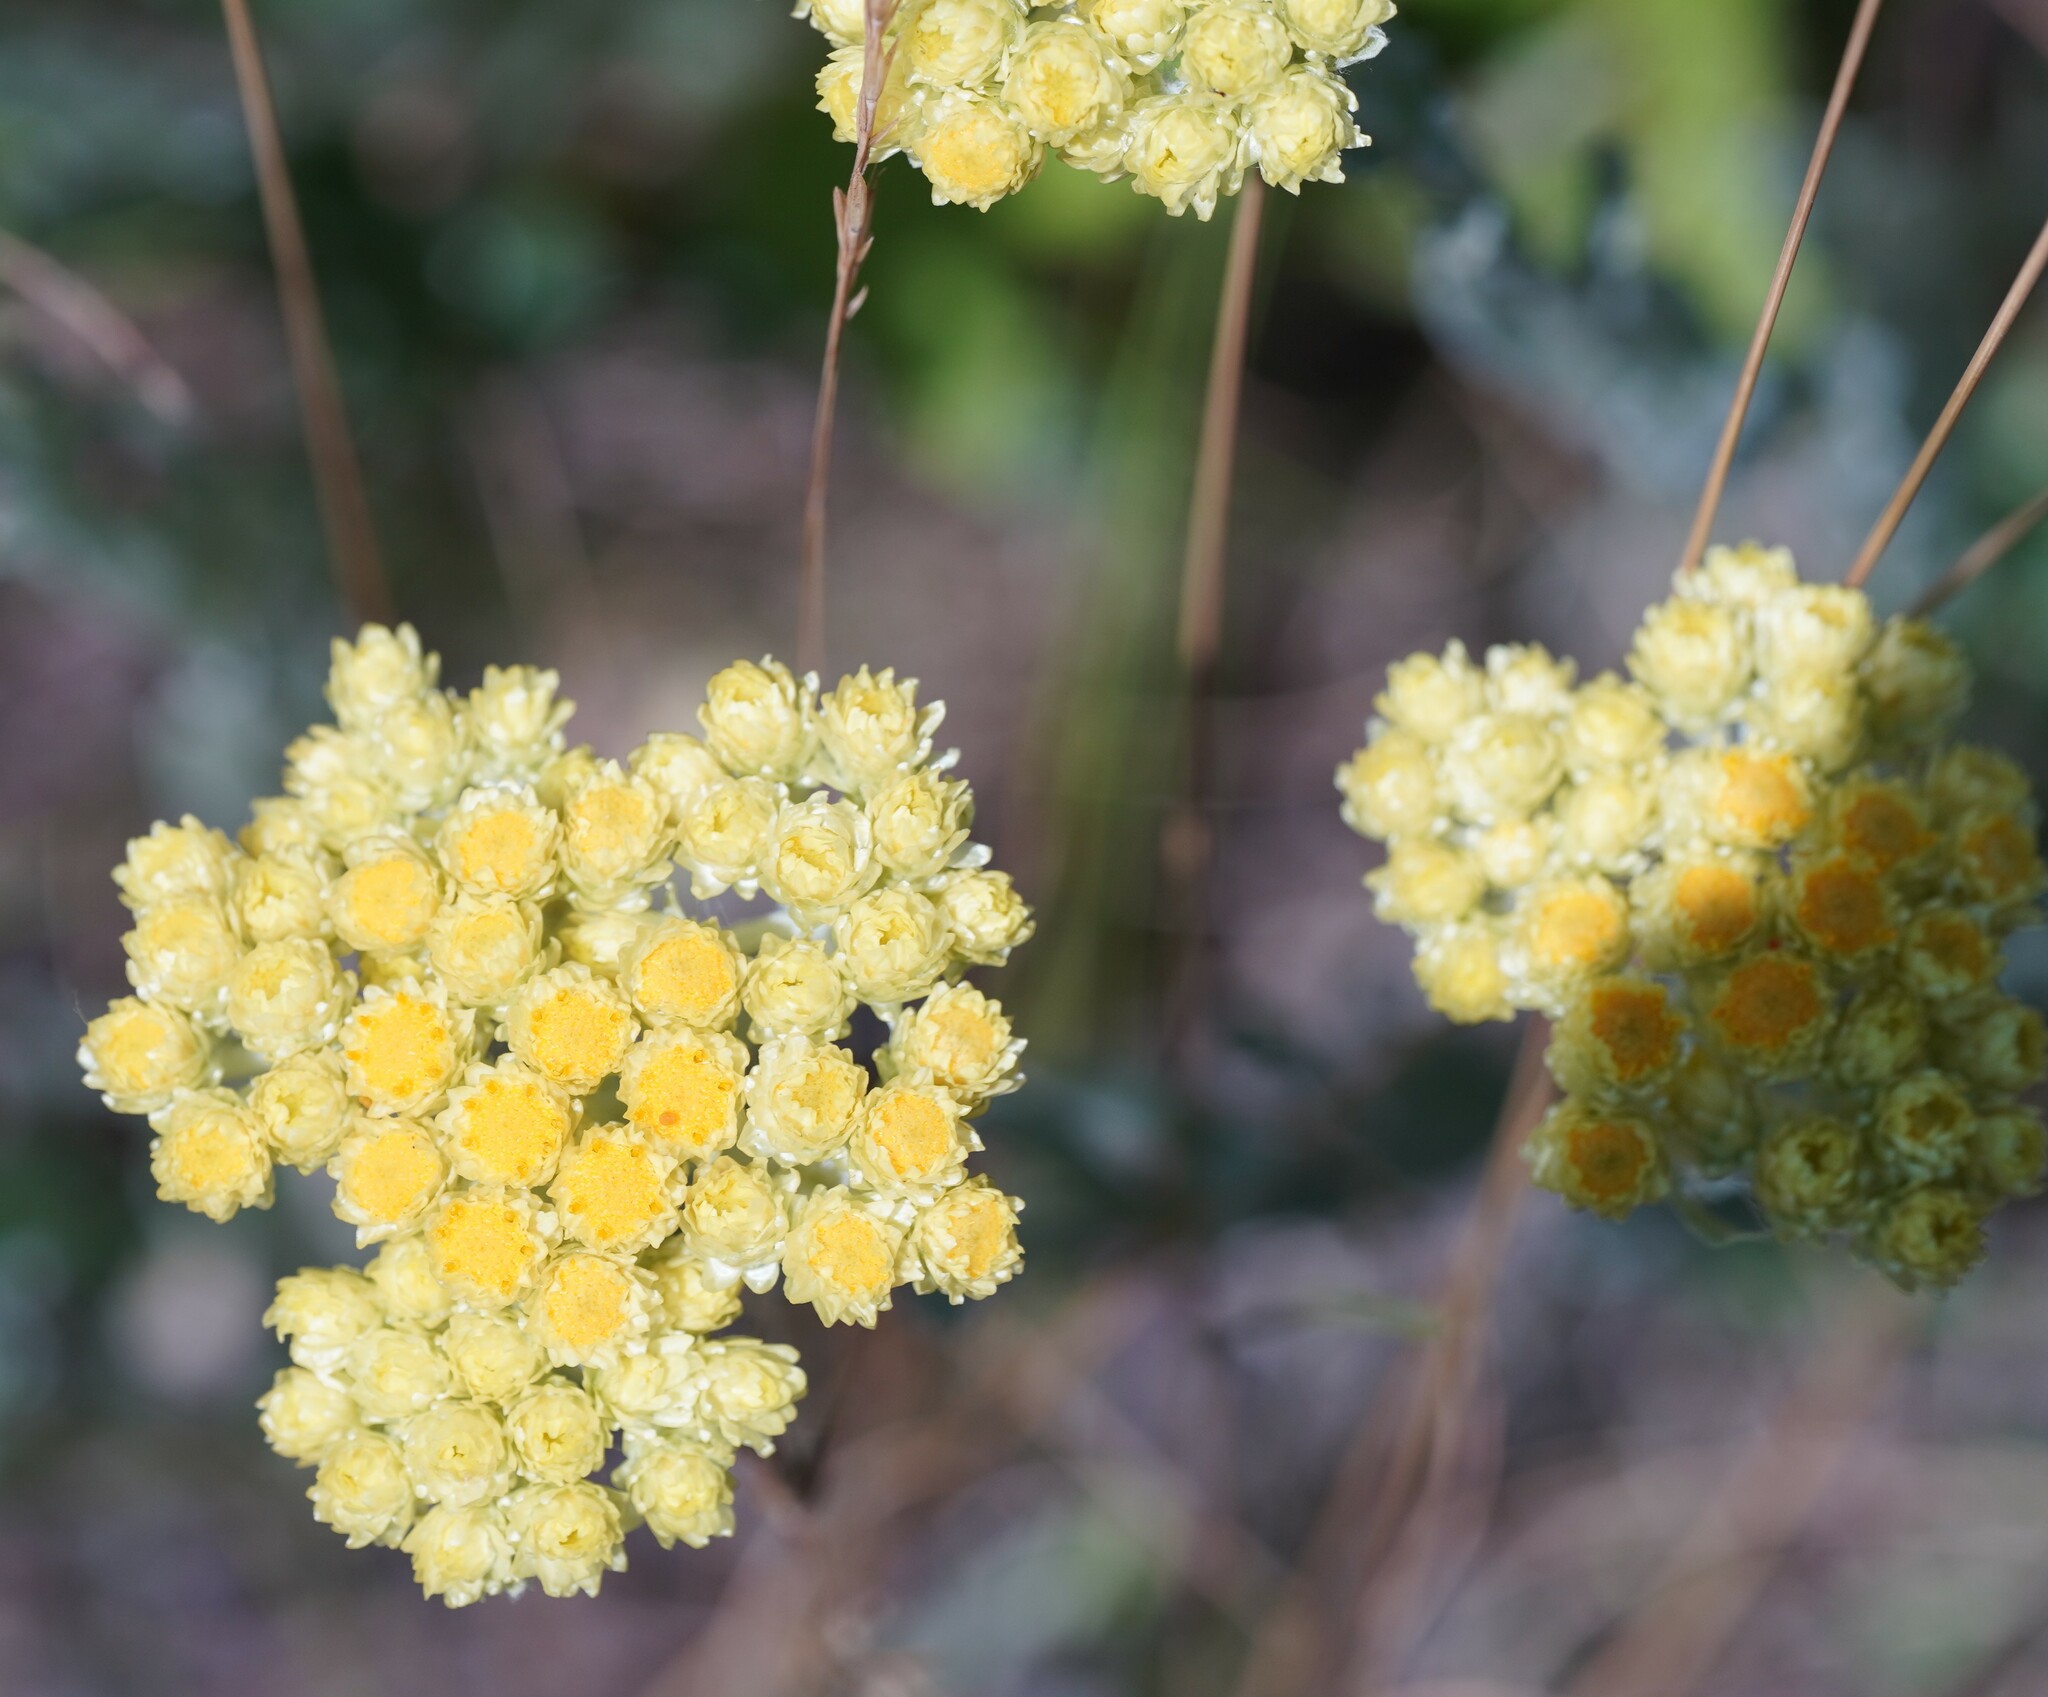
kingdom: Plantae
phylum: Tracheophyta
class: Magnoliopsida
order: Asterales
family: Asteraceae
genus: Helichrysum
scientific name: Helichrysum arenarium
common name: Strawflower
